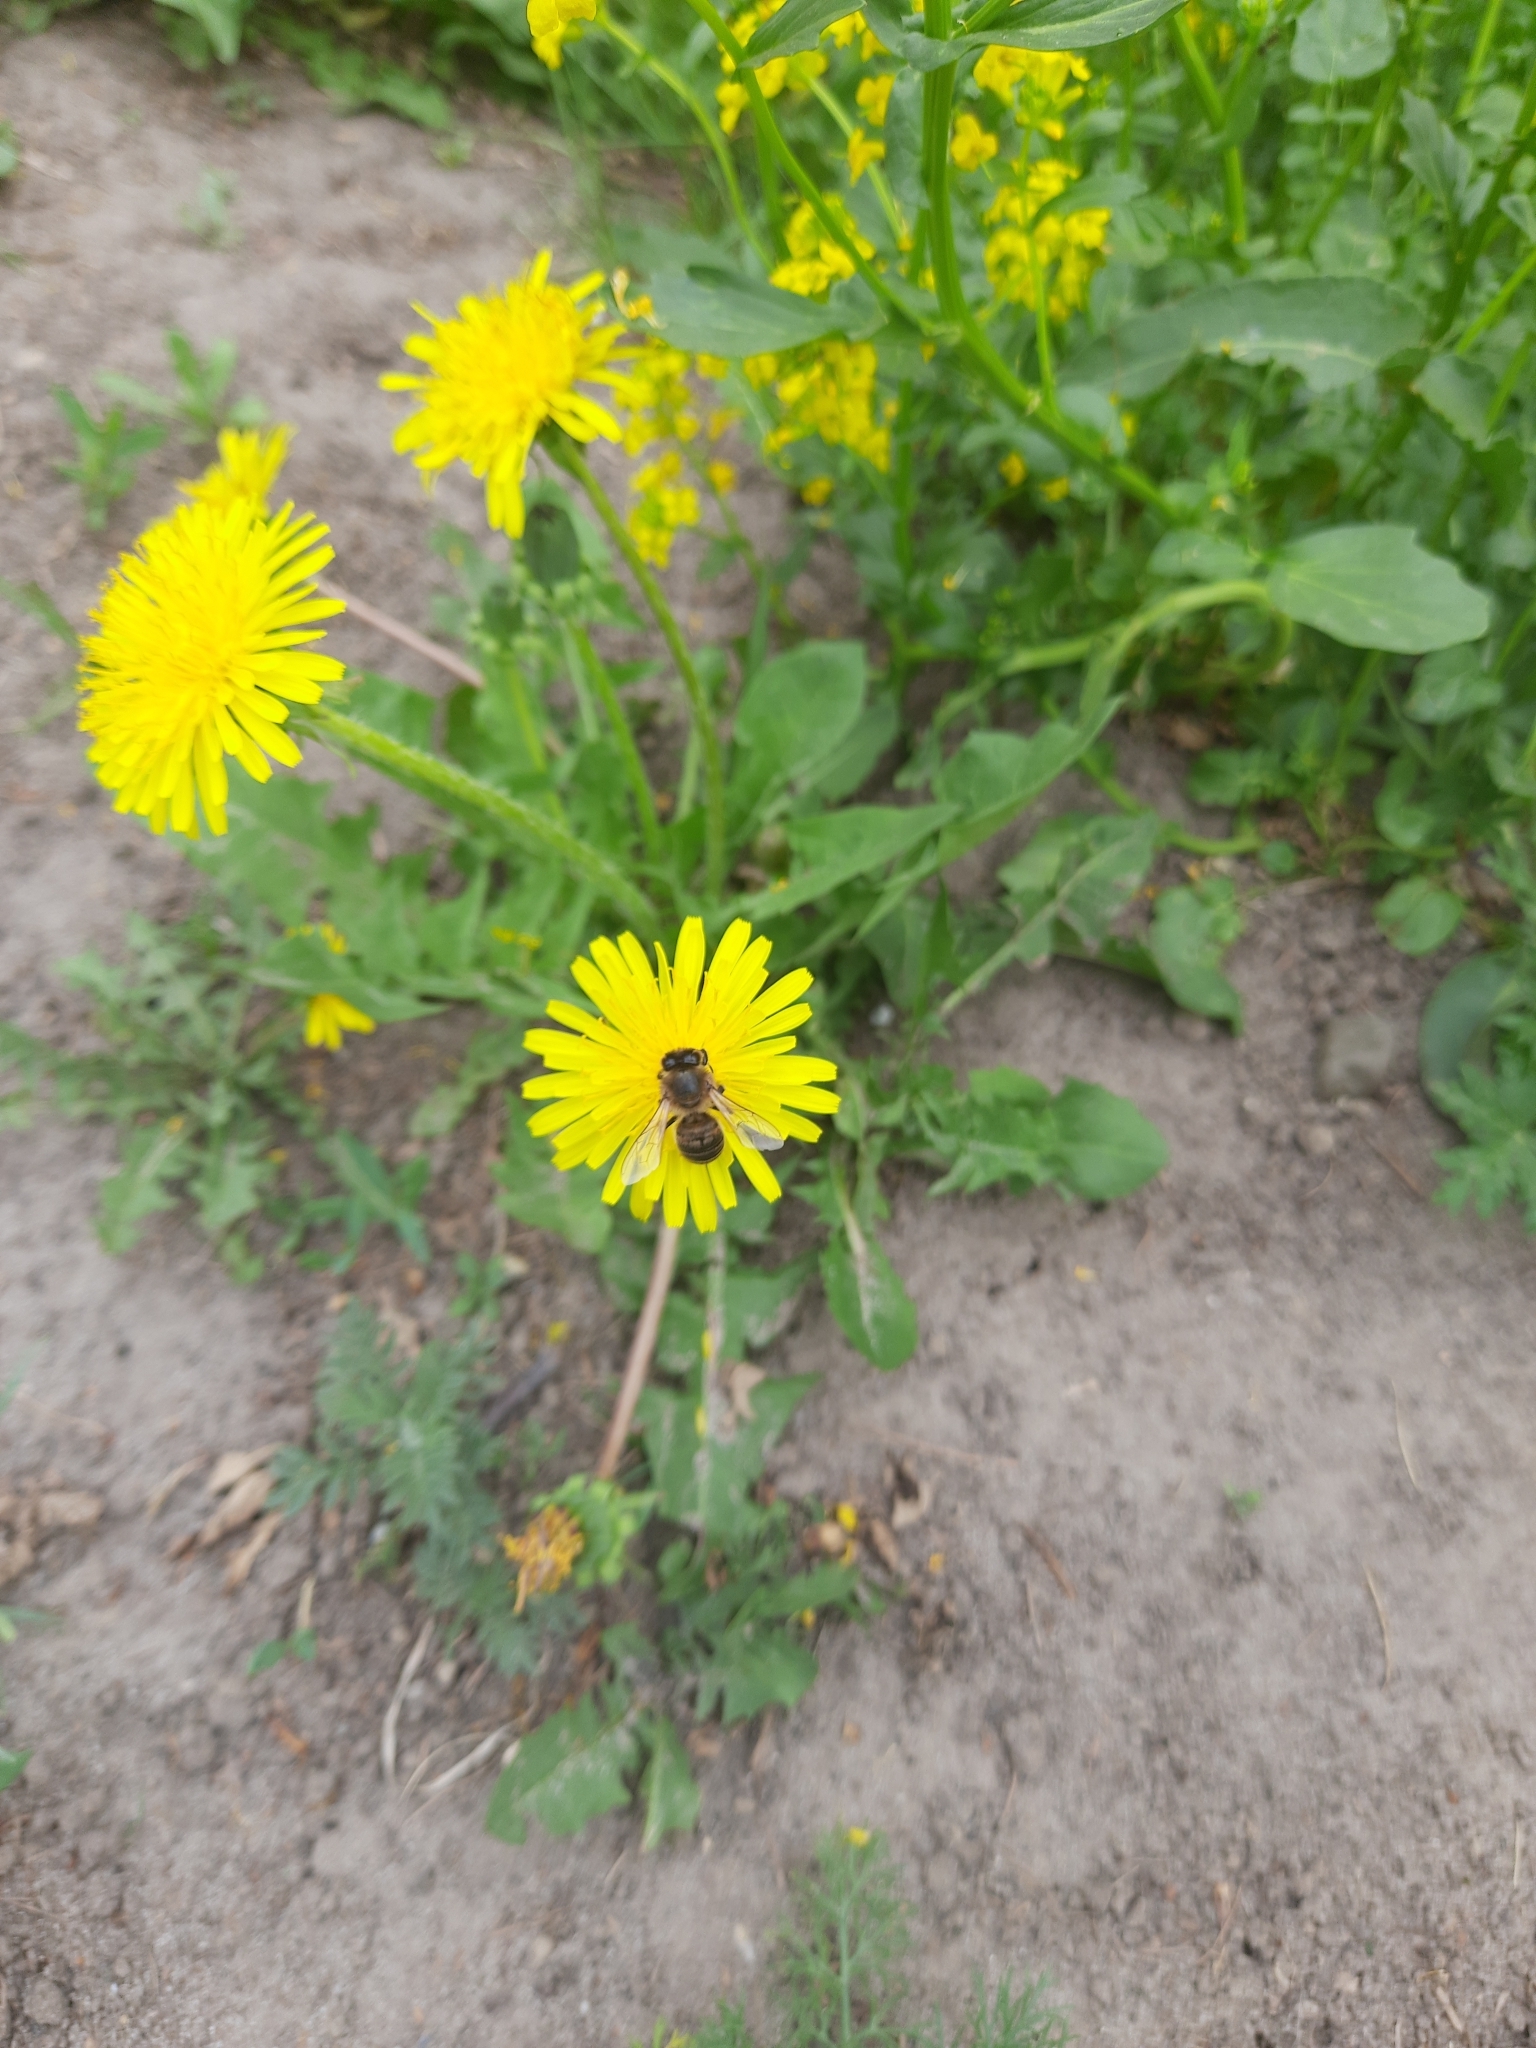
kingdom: Plantae
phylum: Tracheophyta
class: Magnoliopsida
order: Asterales
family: Asteraceae
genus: Taraxacum
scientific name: Taraxacum officinale
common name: Common dandelion
